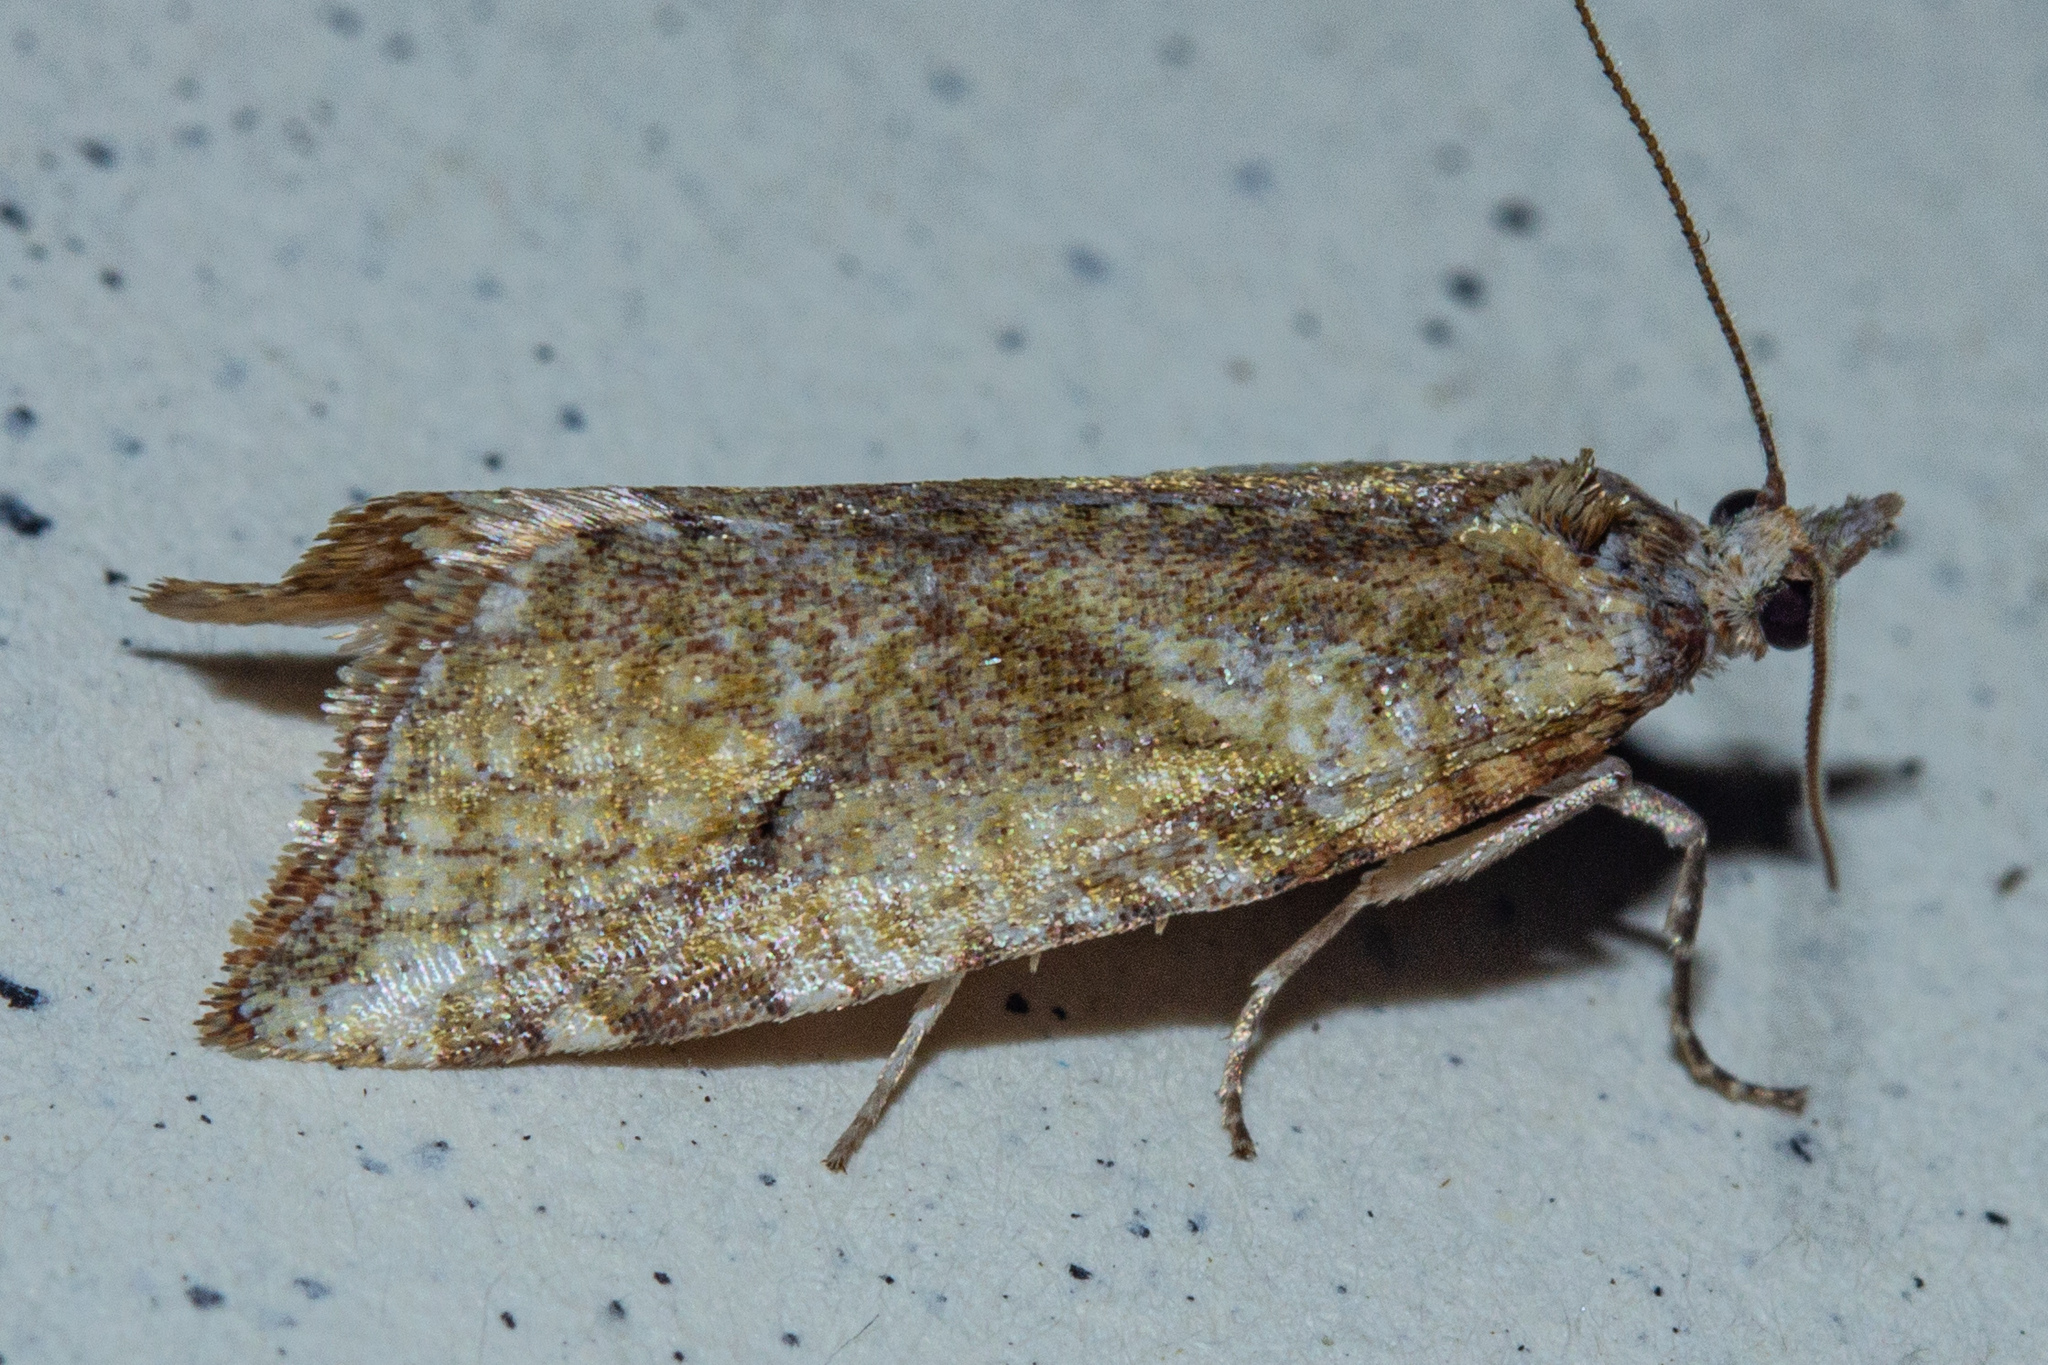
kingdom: Animalia
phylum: Arthropoda
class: Insecta
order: Lepidoptera
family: Tortricidae
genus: Pyrgotis
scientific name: Pyrgotis plagiatana
